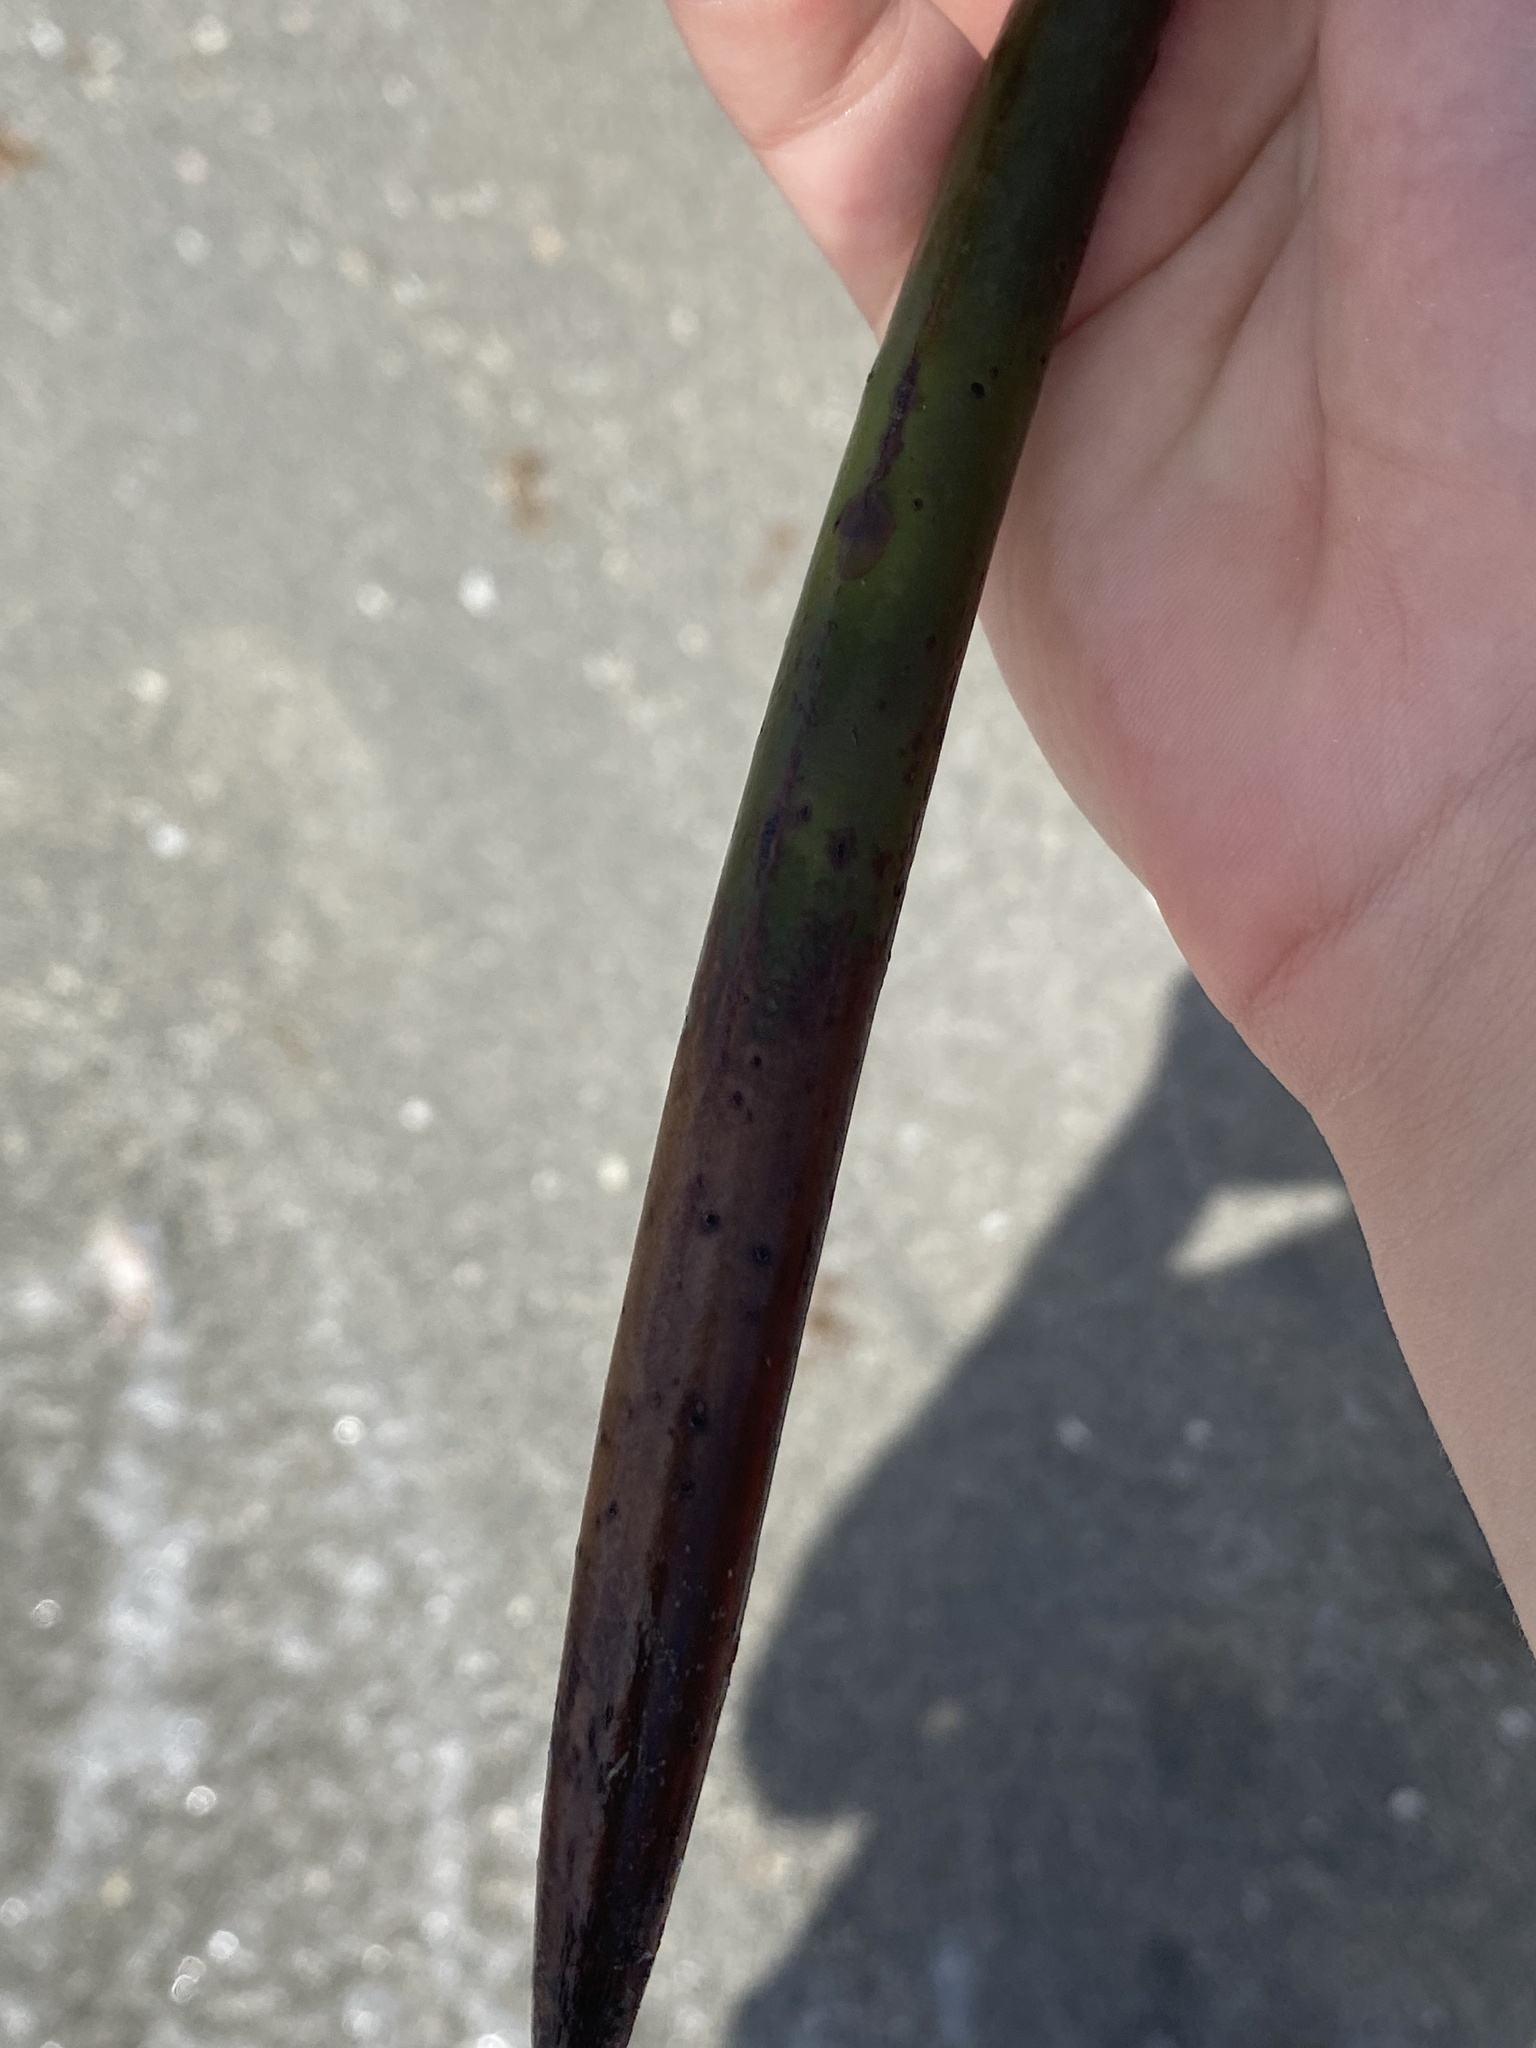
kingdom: Plantae
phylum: Tracheophyta
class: Magnoliopsida
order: Malpighiales
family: Rhizophoraceae
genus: Rhizophora
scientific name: Rhizophora mangle
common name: Red mangrove
